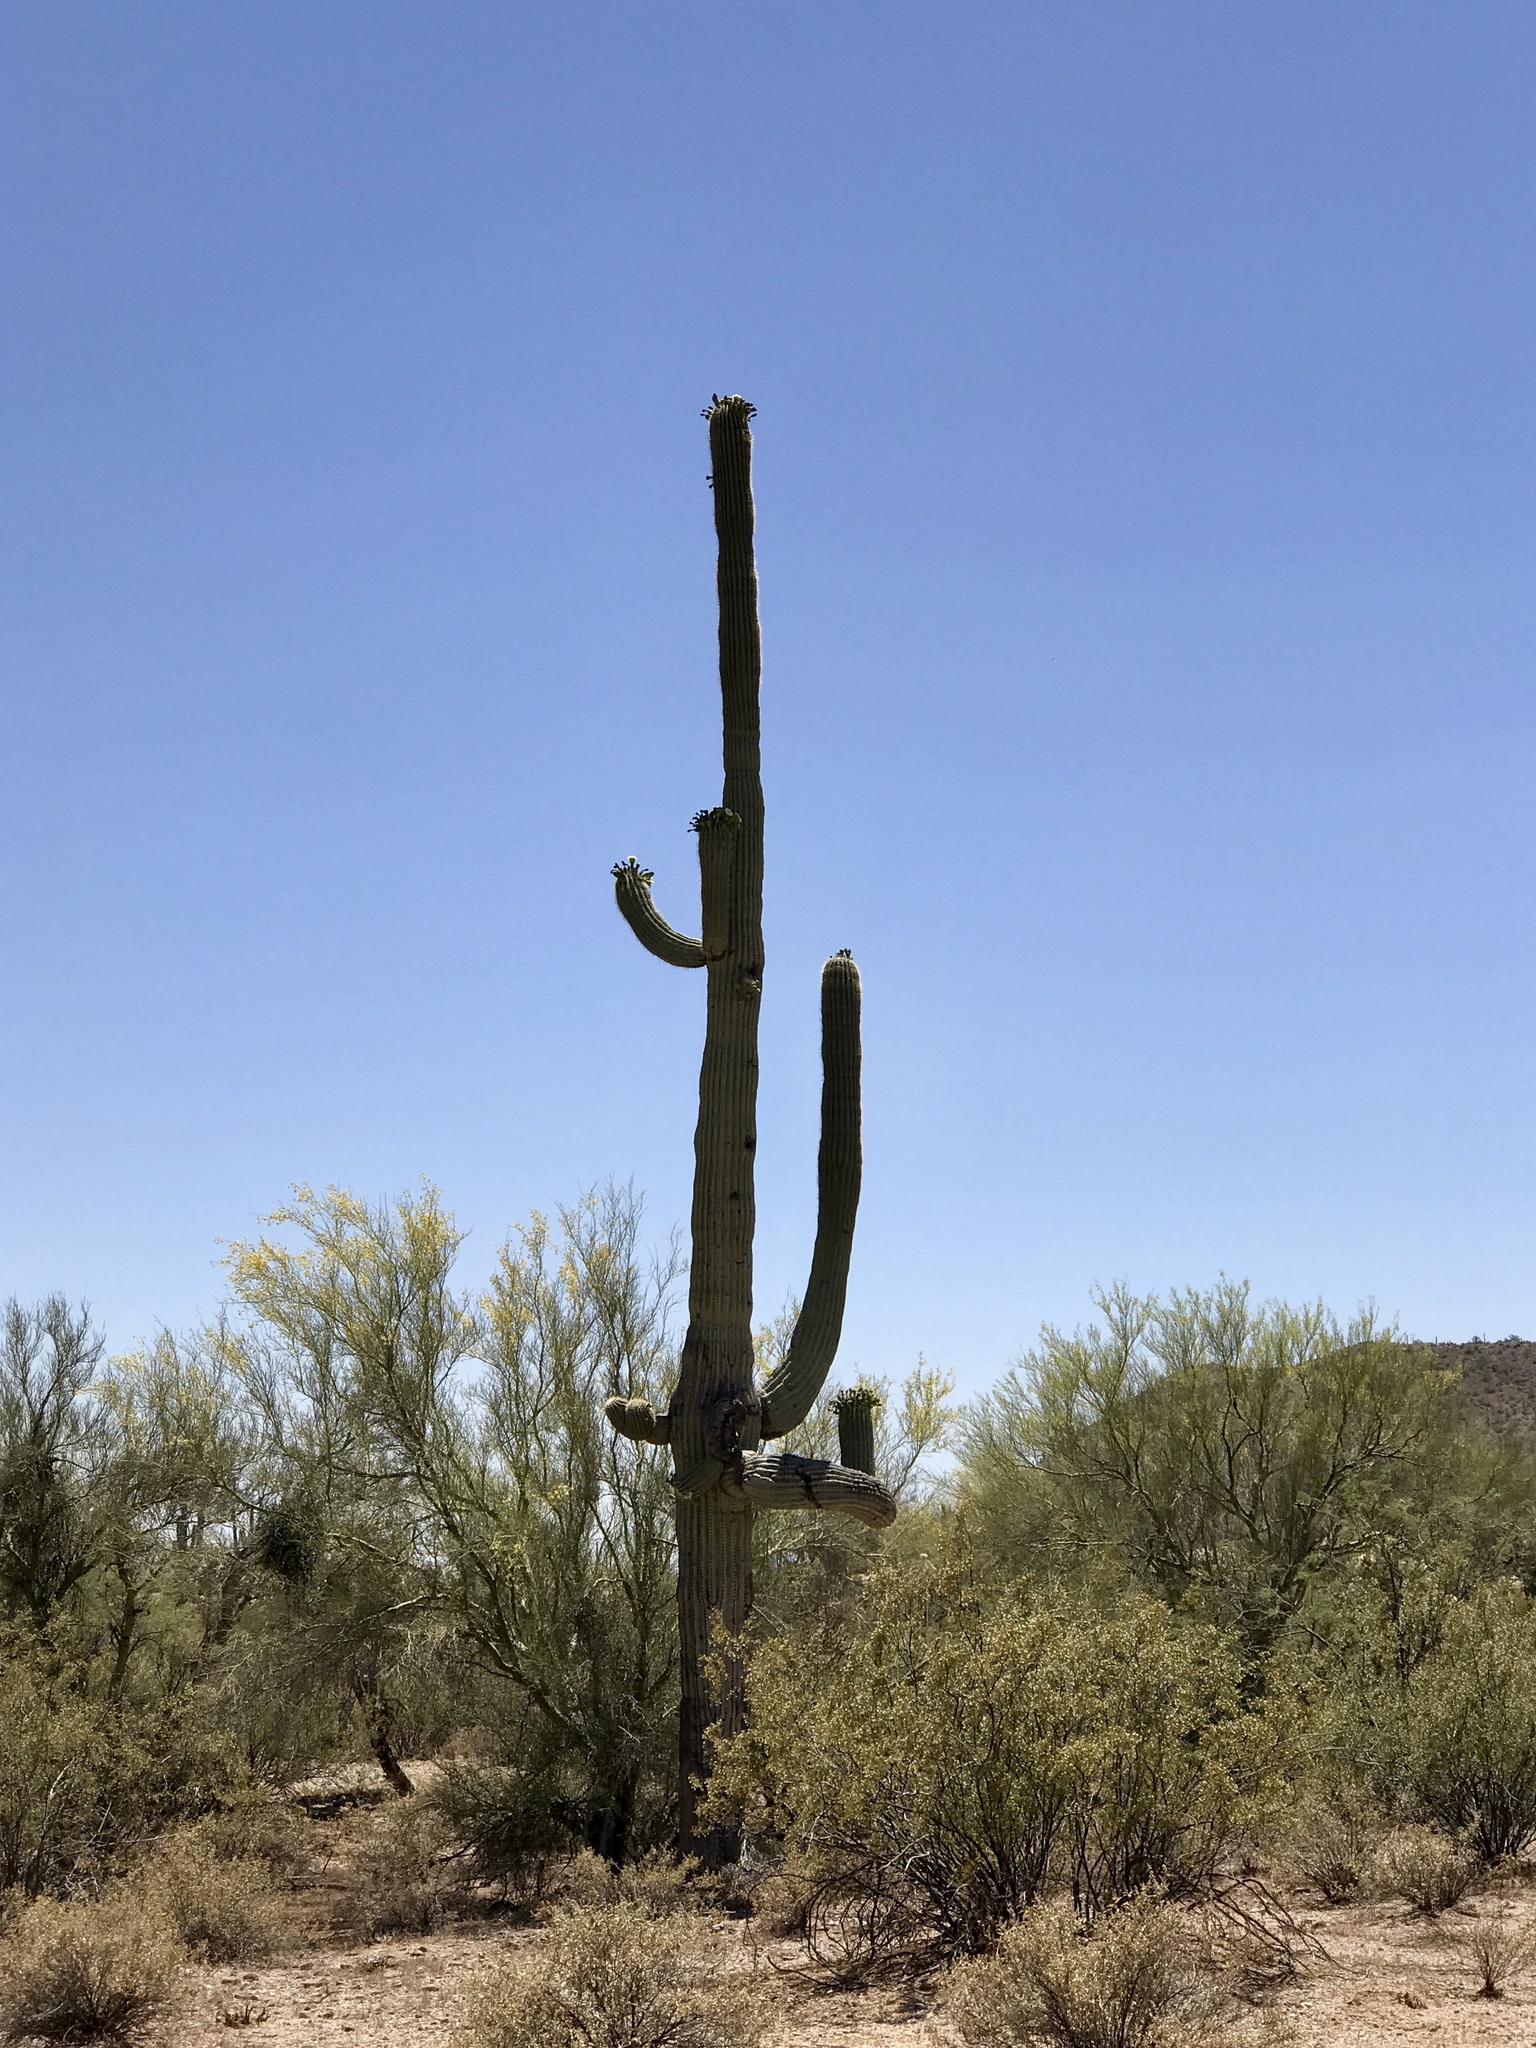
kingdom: Plantae
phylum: Tracheophyta
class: Magnoliopsida
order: Caryophyllales
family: Cactaceae
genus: Carnegiea
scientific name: Carnegiea gigantea
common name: Saguaro
